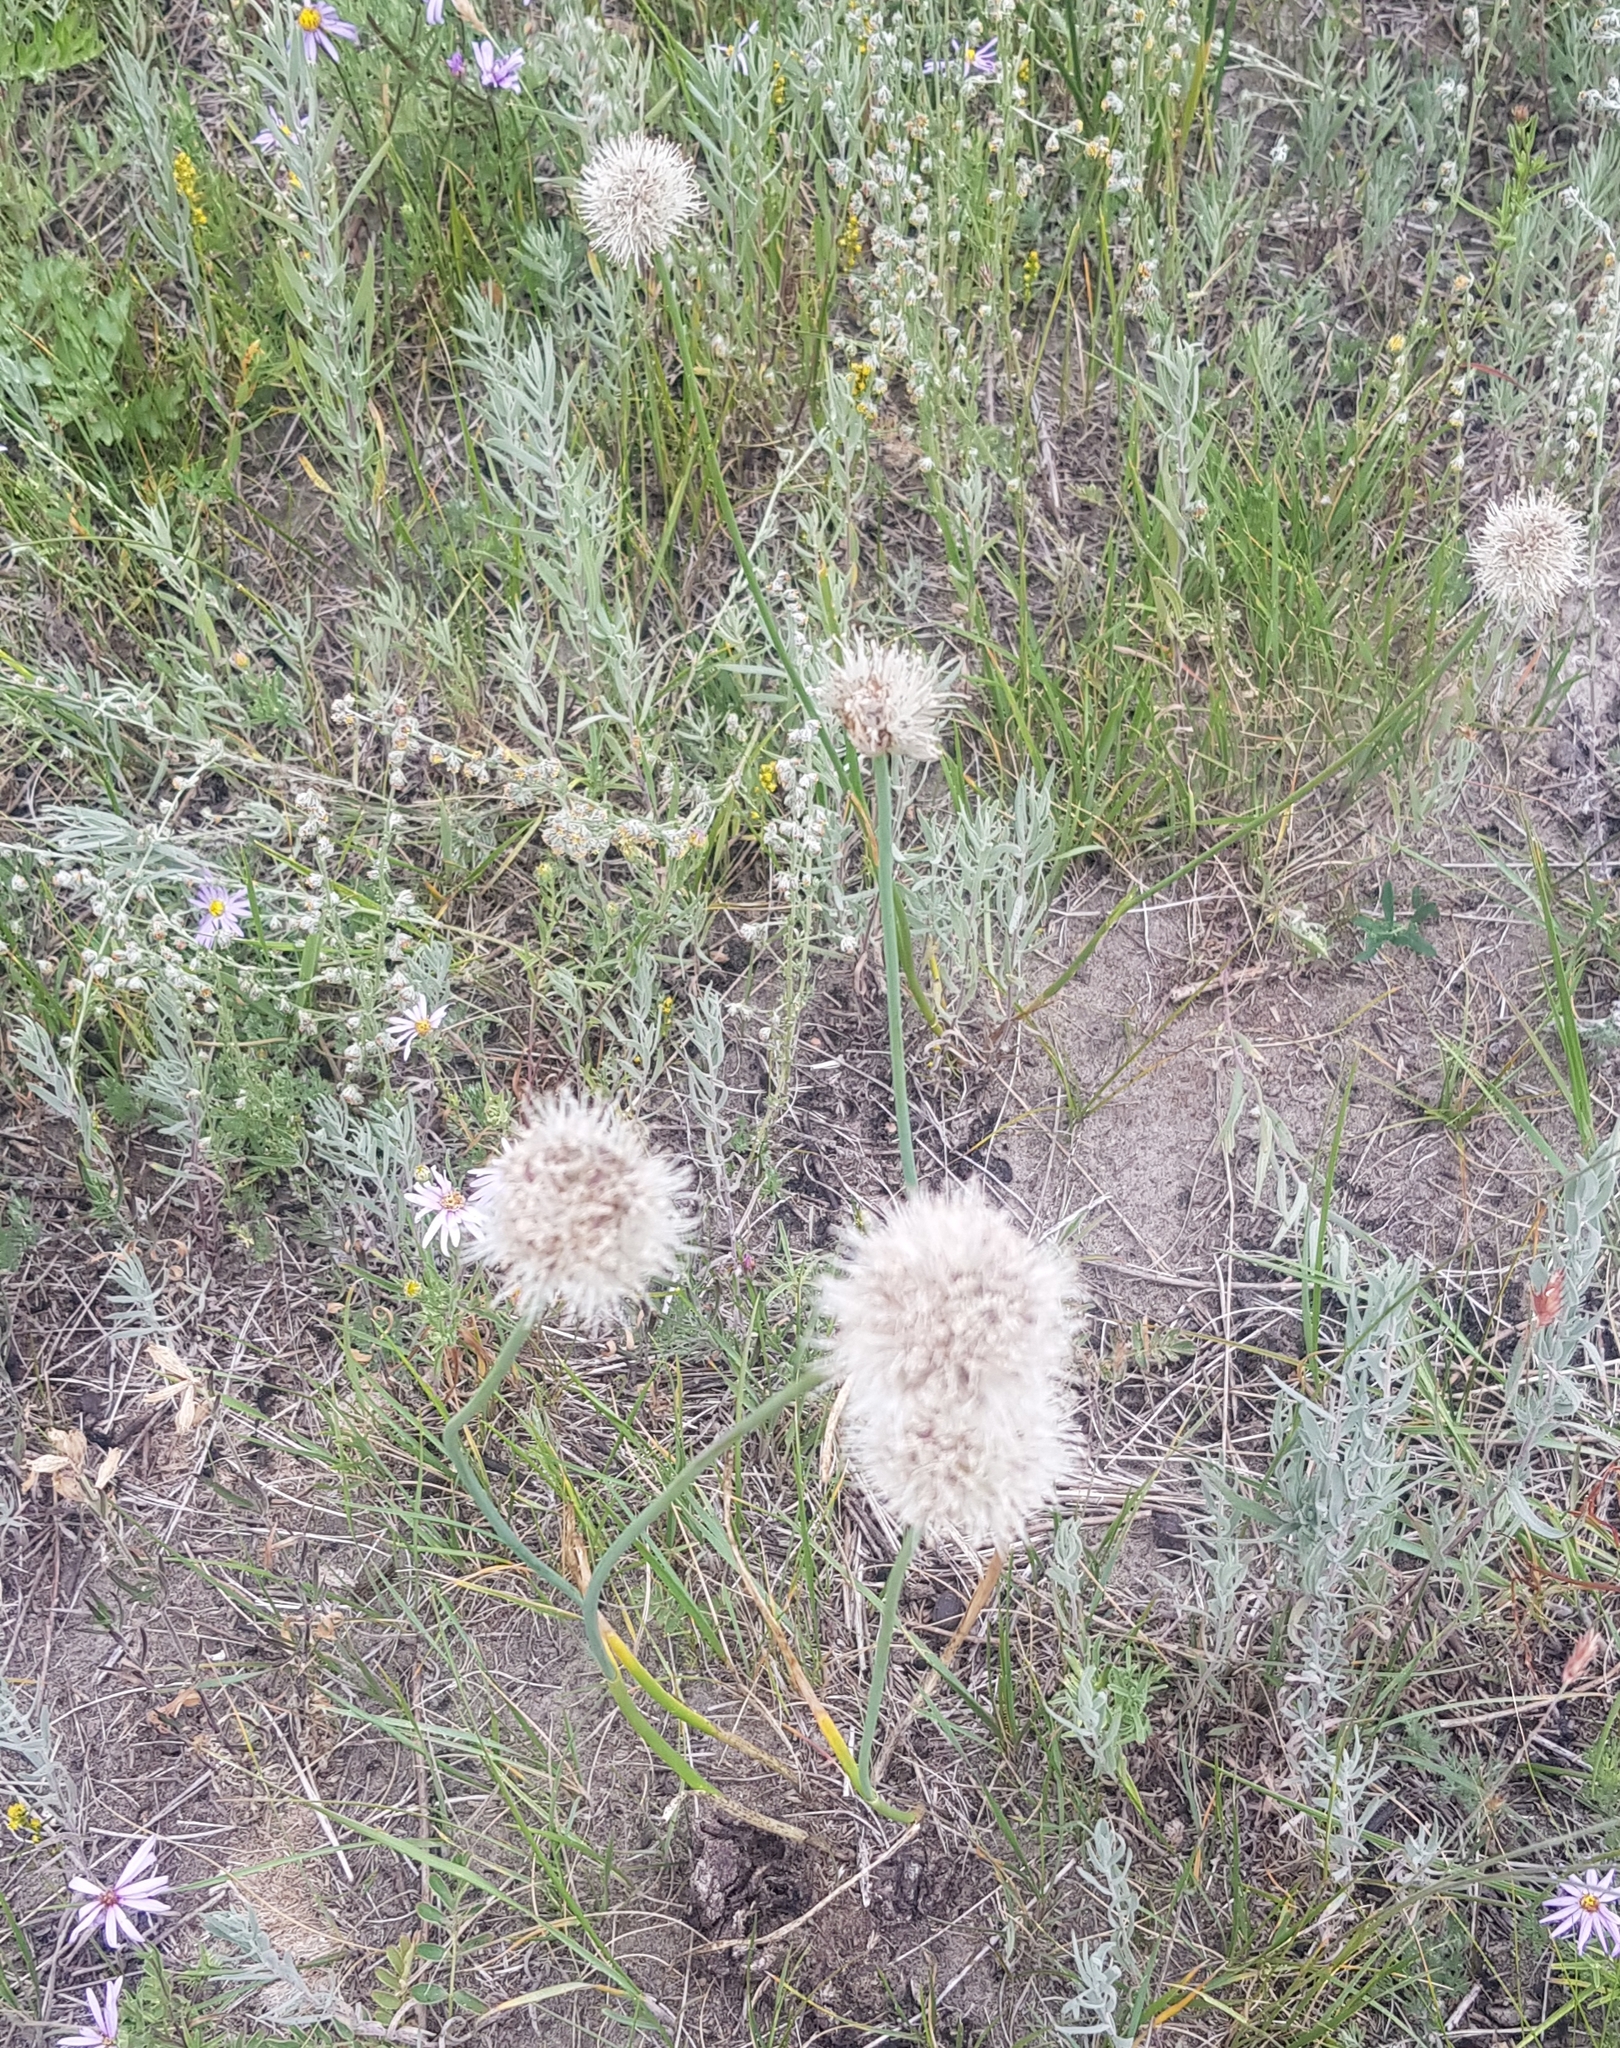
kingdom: Plantae
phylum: Tracheophyta
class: Liliopsida
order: Asparagales
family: Amaryllidaceae
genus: Allium
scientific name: Allium leucocephalum
